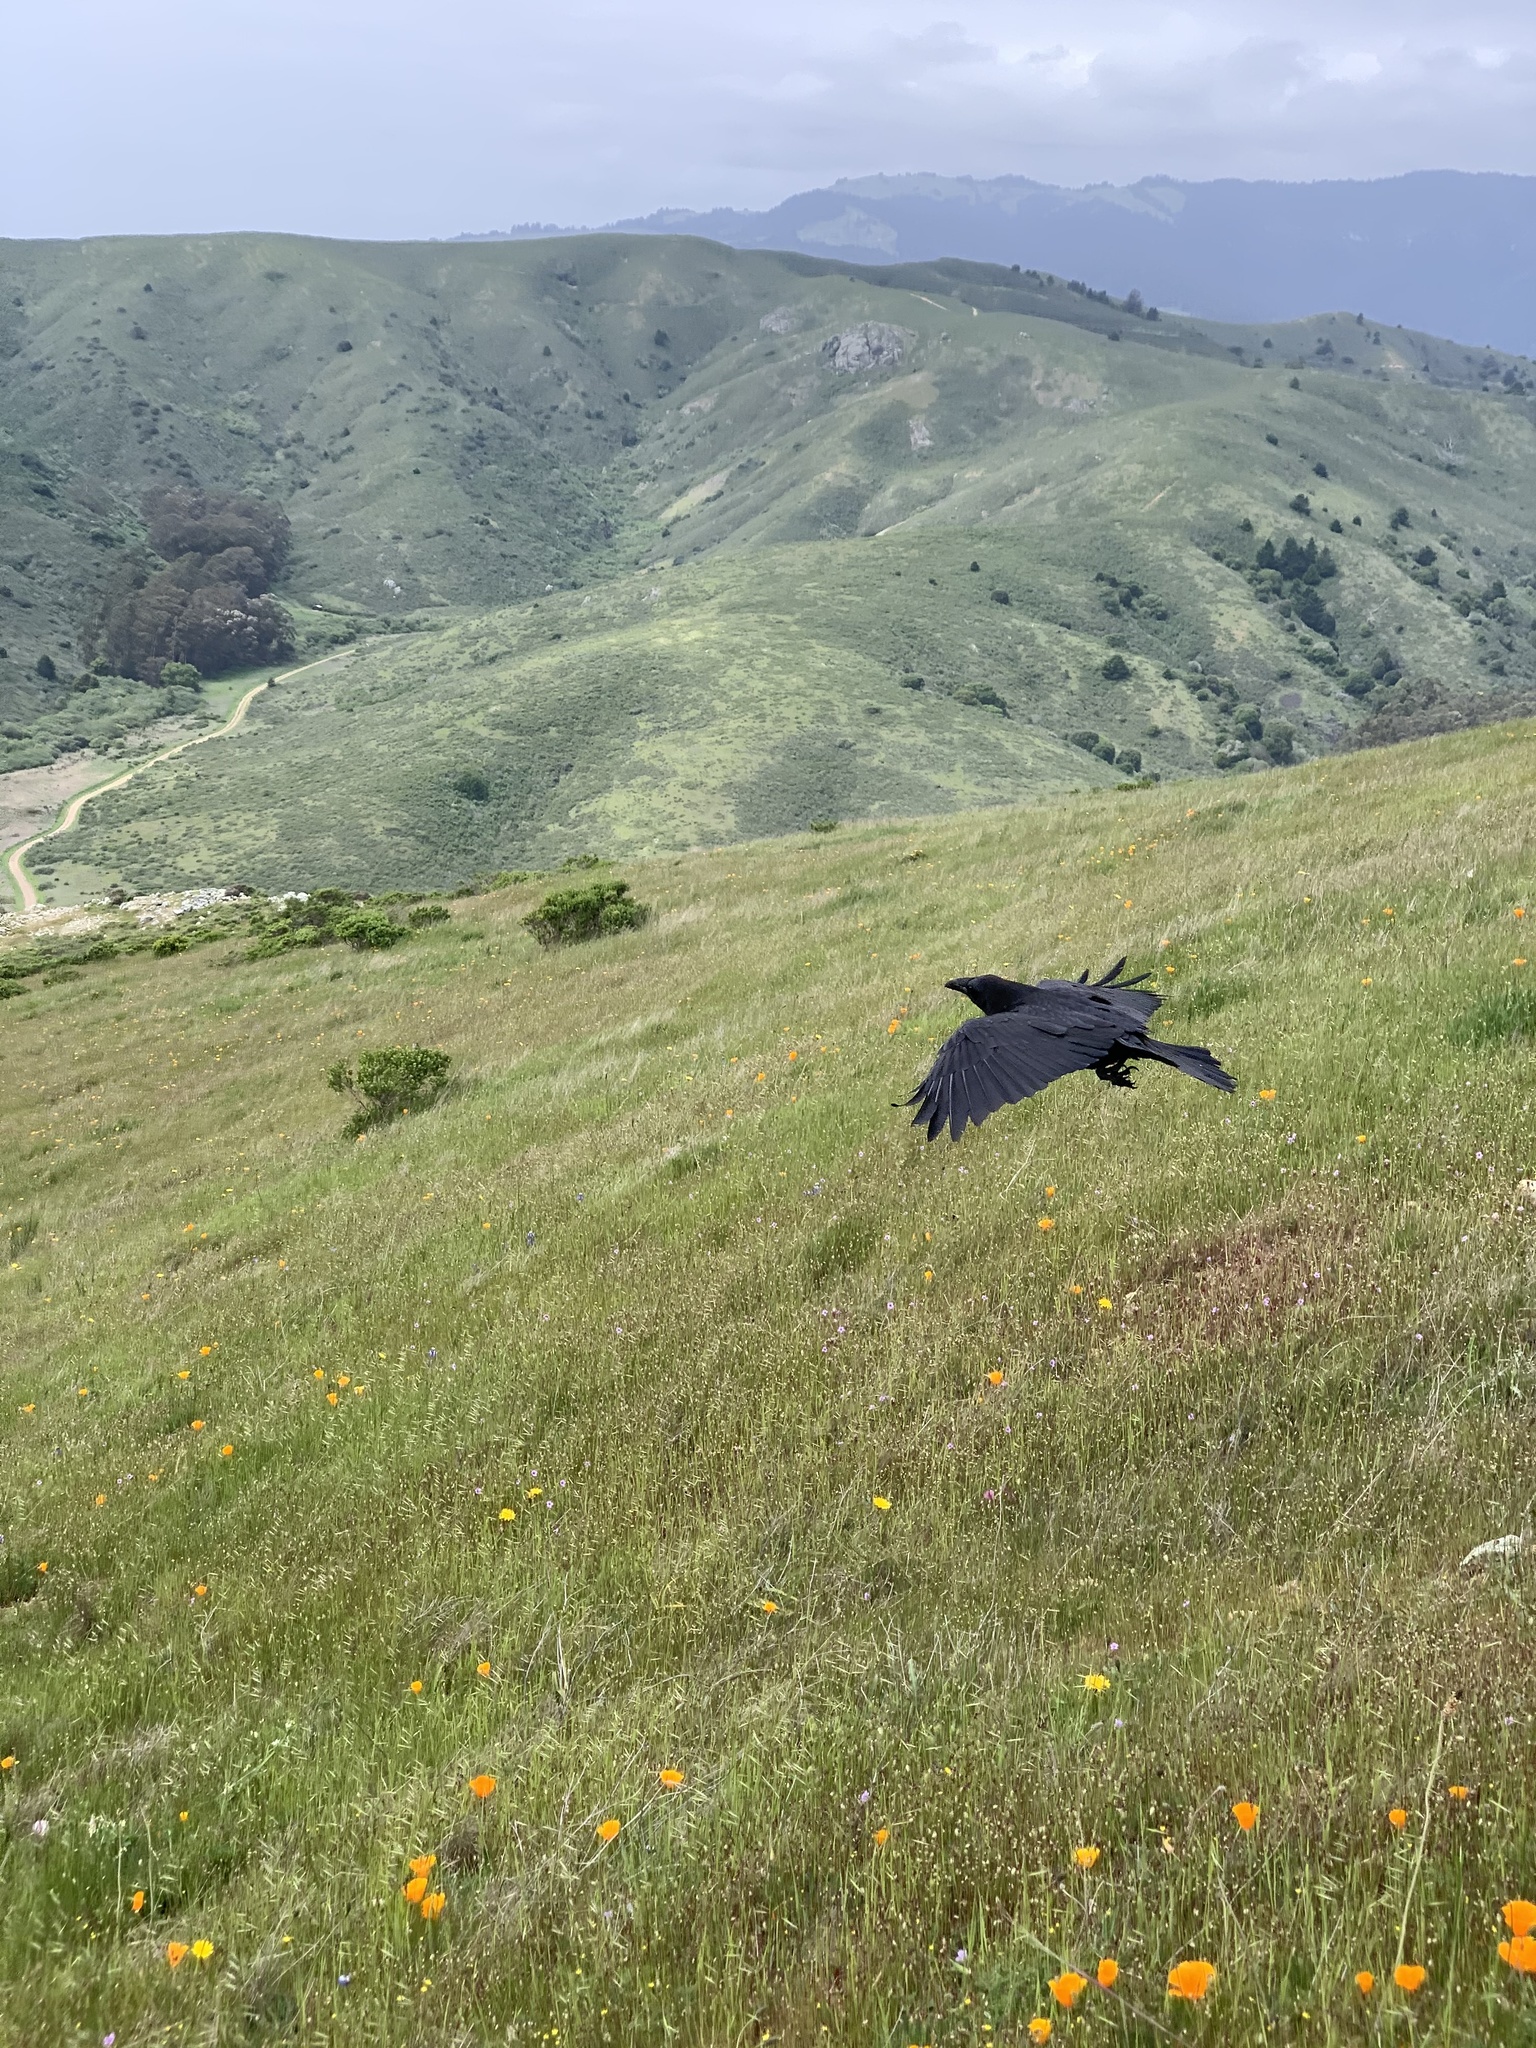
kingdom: Animalia
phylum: Chordata
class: Aves
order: Passeriformes
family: Corvidae
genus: Corvus
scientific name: Corvus corax
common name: Common raven
